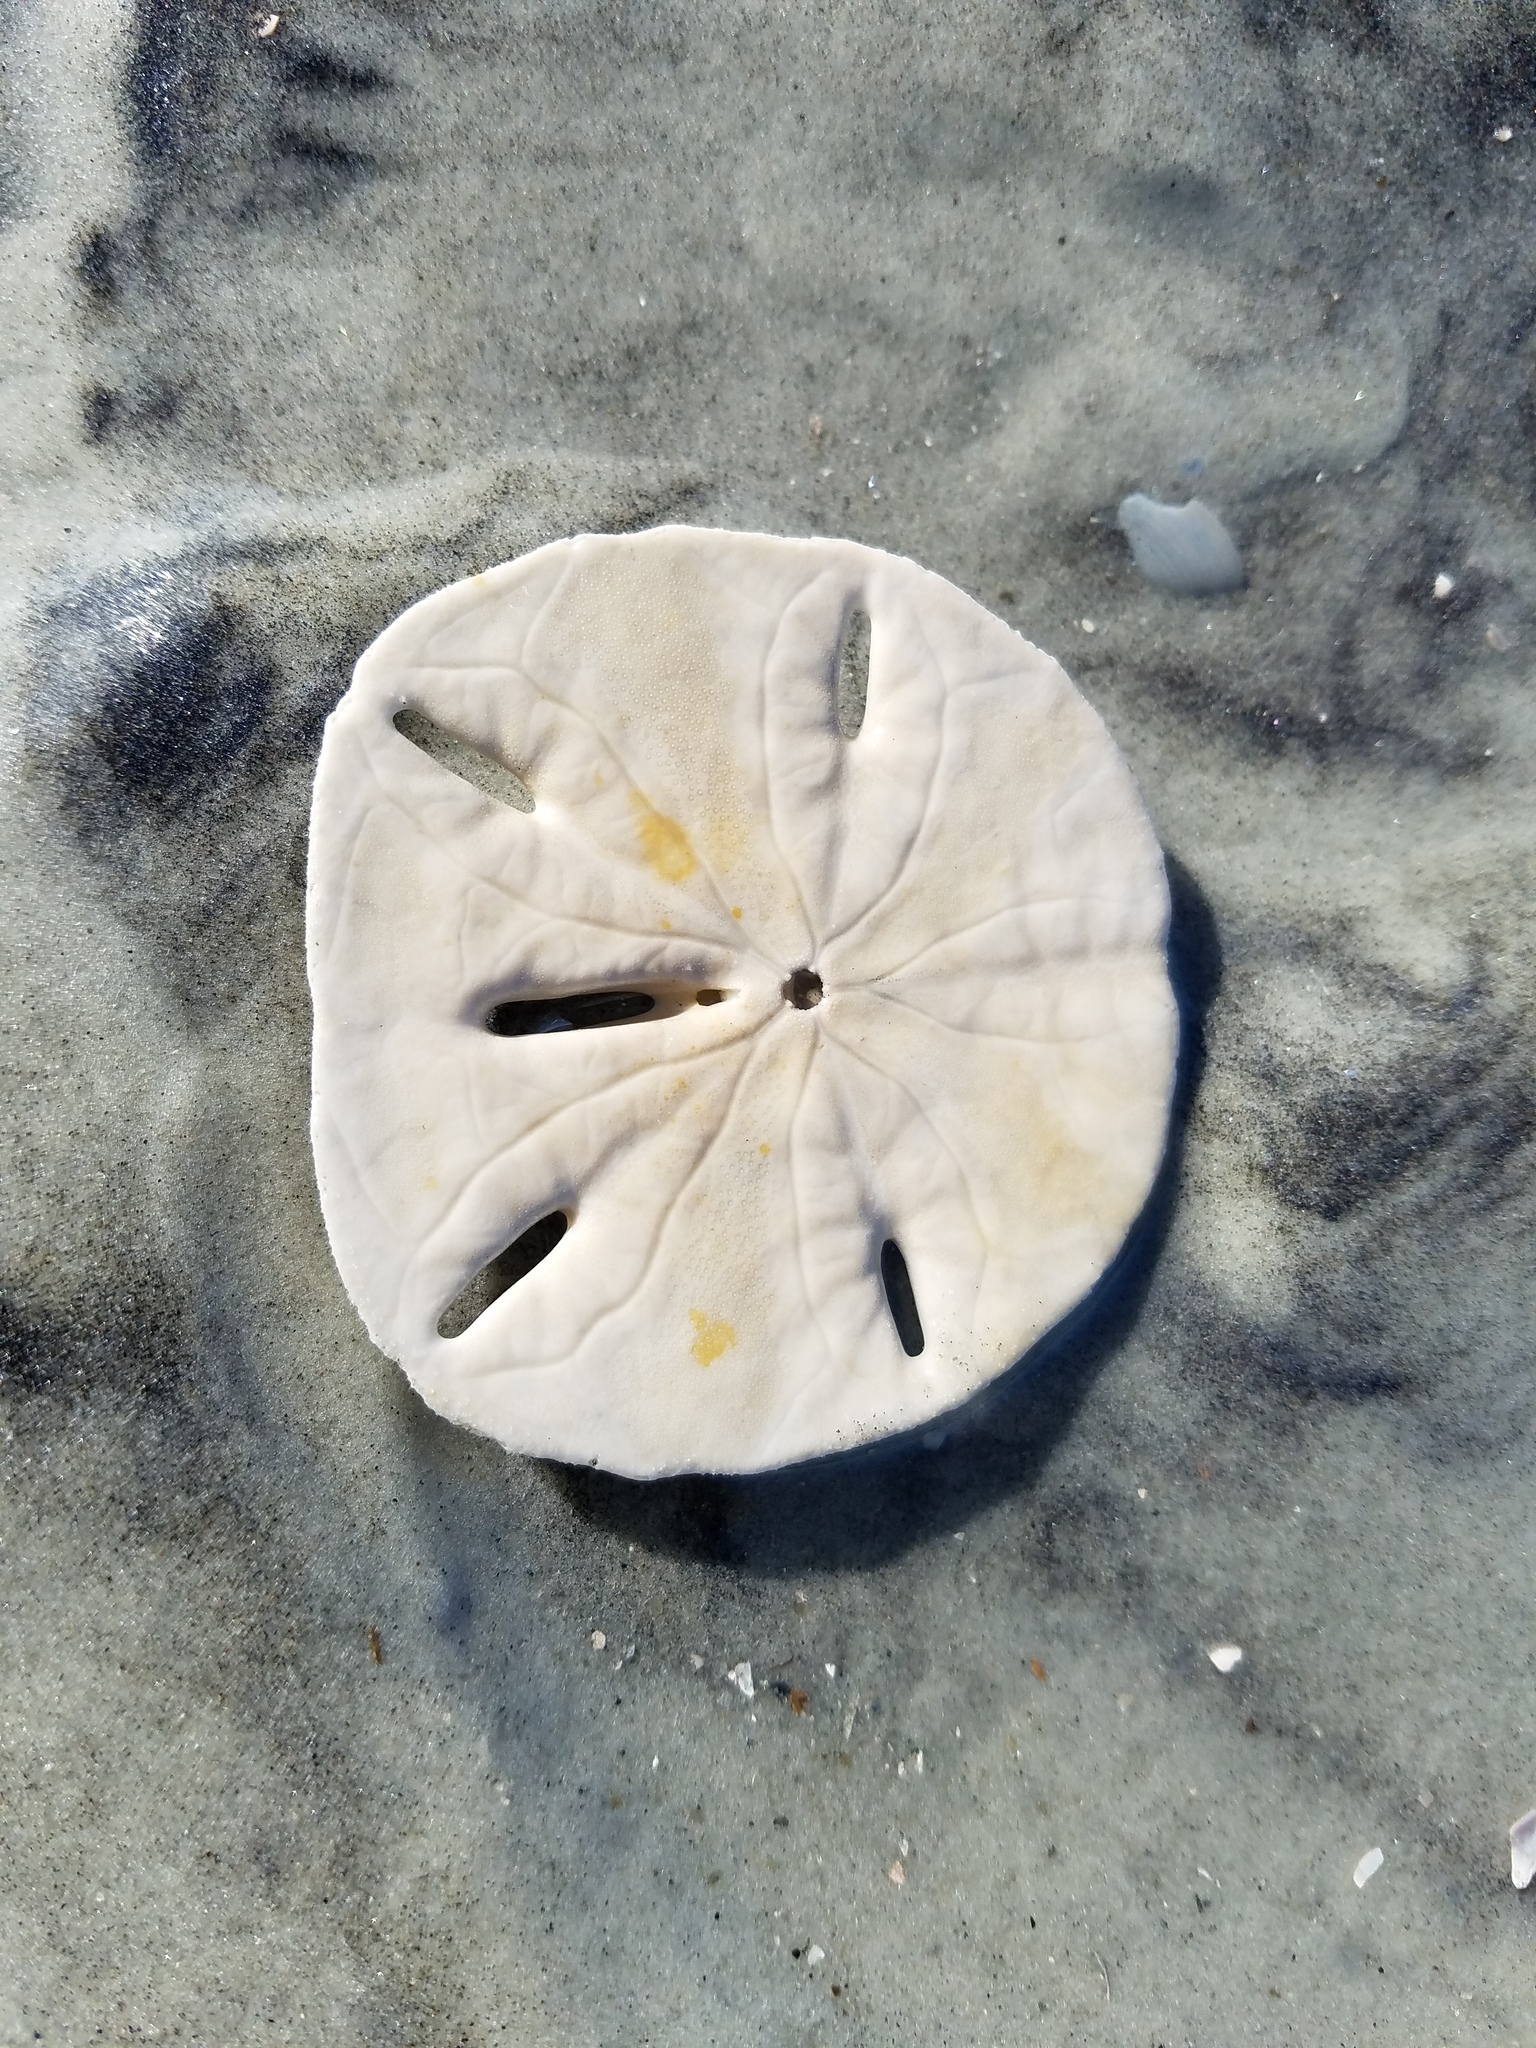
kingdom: Animalia
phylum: Echinodermata
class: Echinoidea
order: Echinolampadacea
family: Mellitidae
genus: Mellita
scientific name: Mellita quinquiesperforata
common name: Sand dollar
